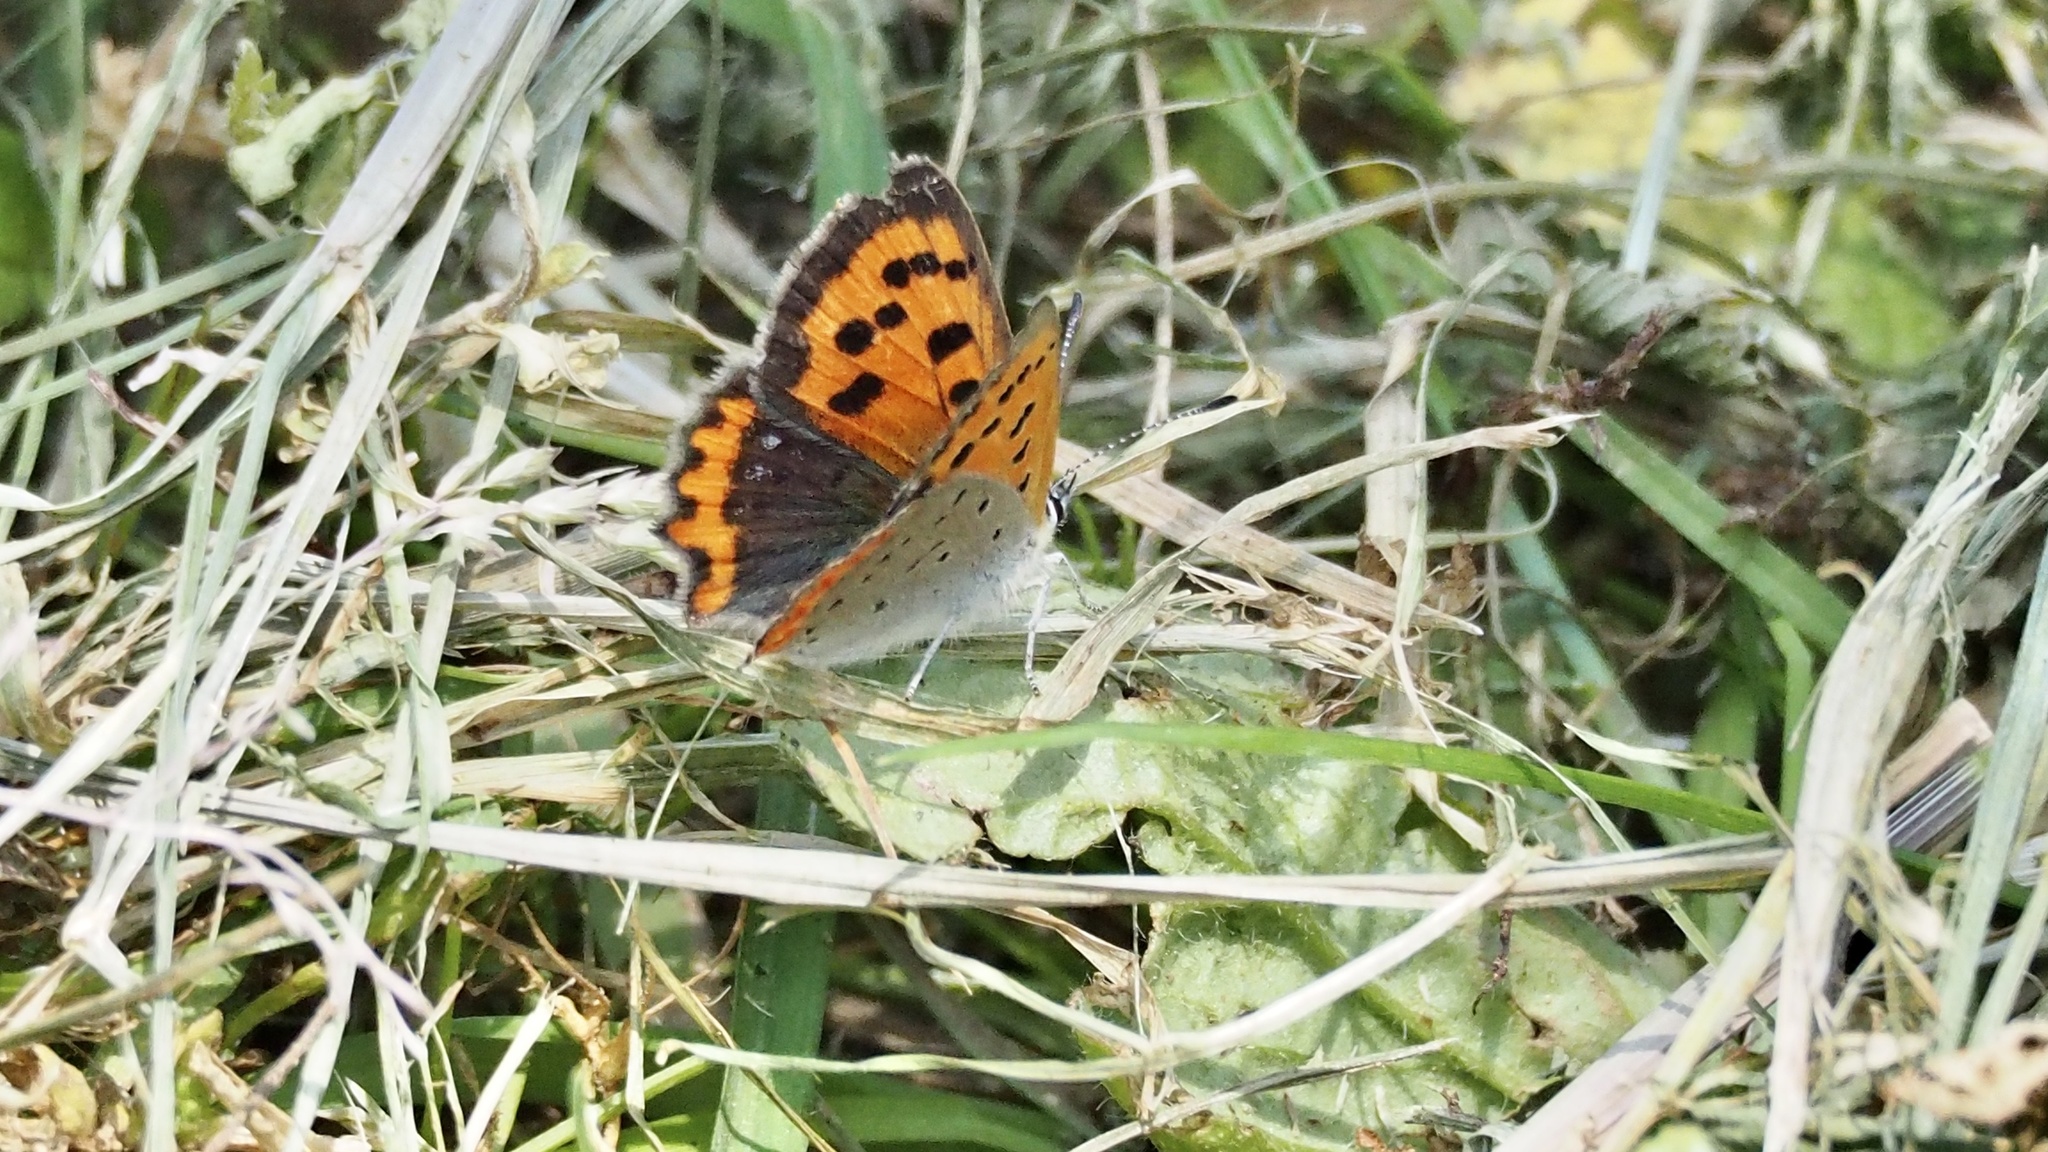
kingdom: Animalia
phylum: Arthropoda
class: Insecta
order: Lepidoptera
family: Lycaenidae
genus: Lycaena
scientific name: Lycaena phlaeas
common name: Small copper
